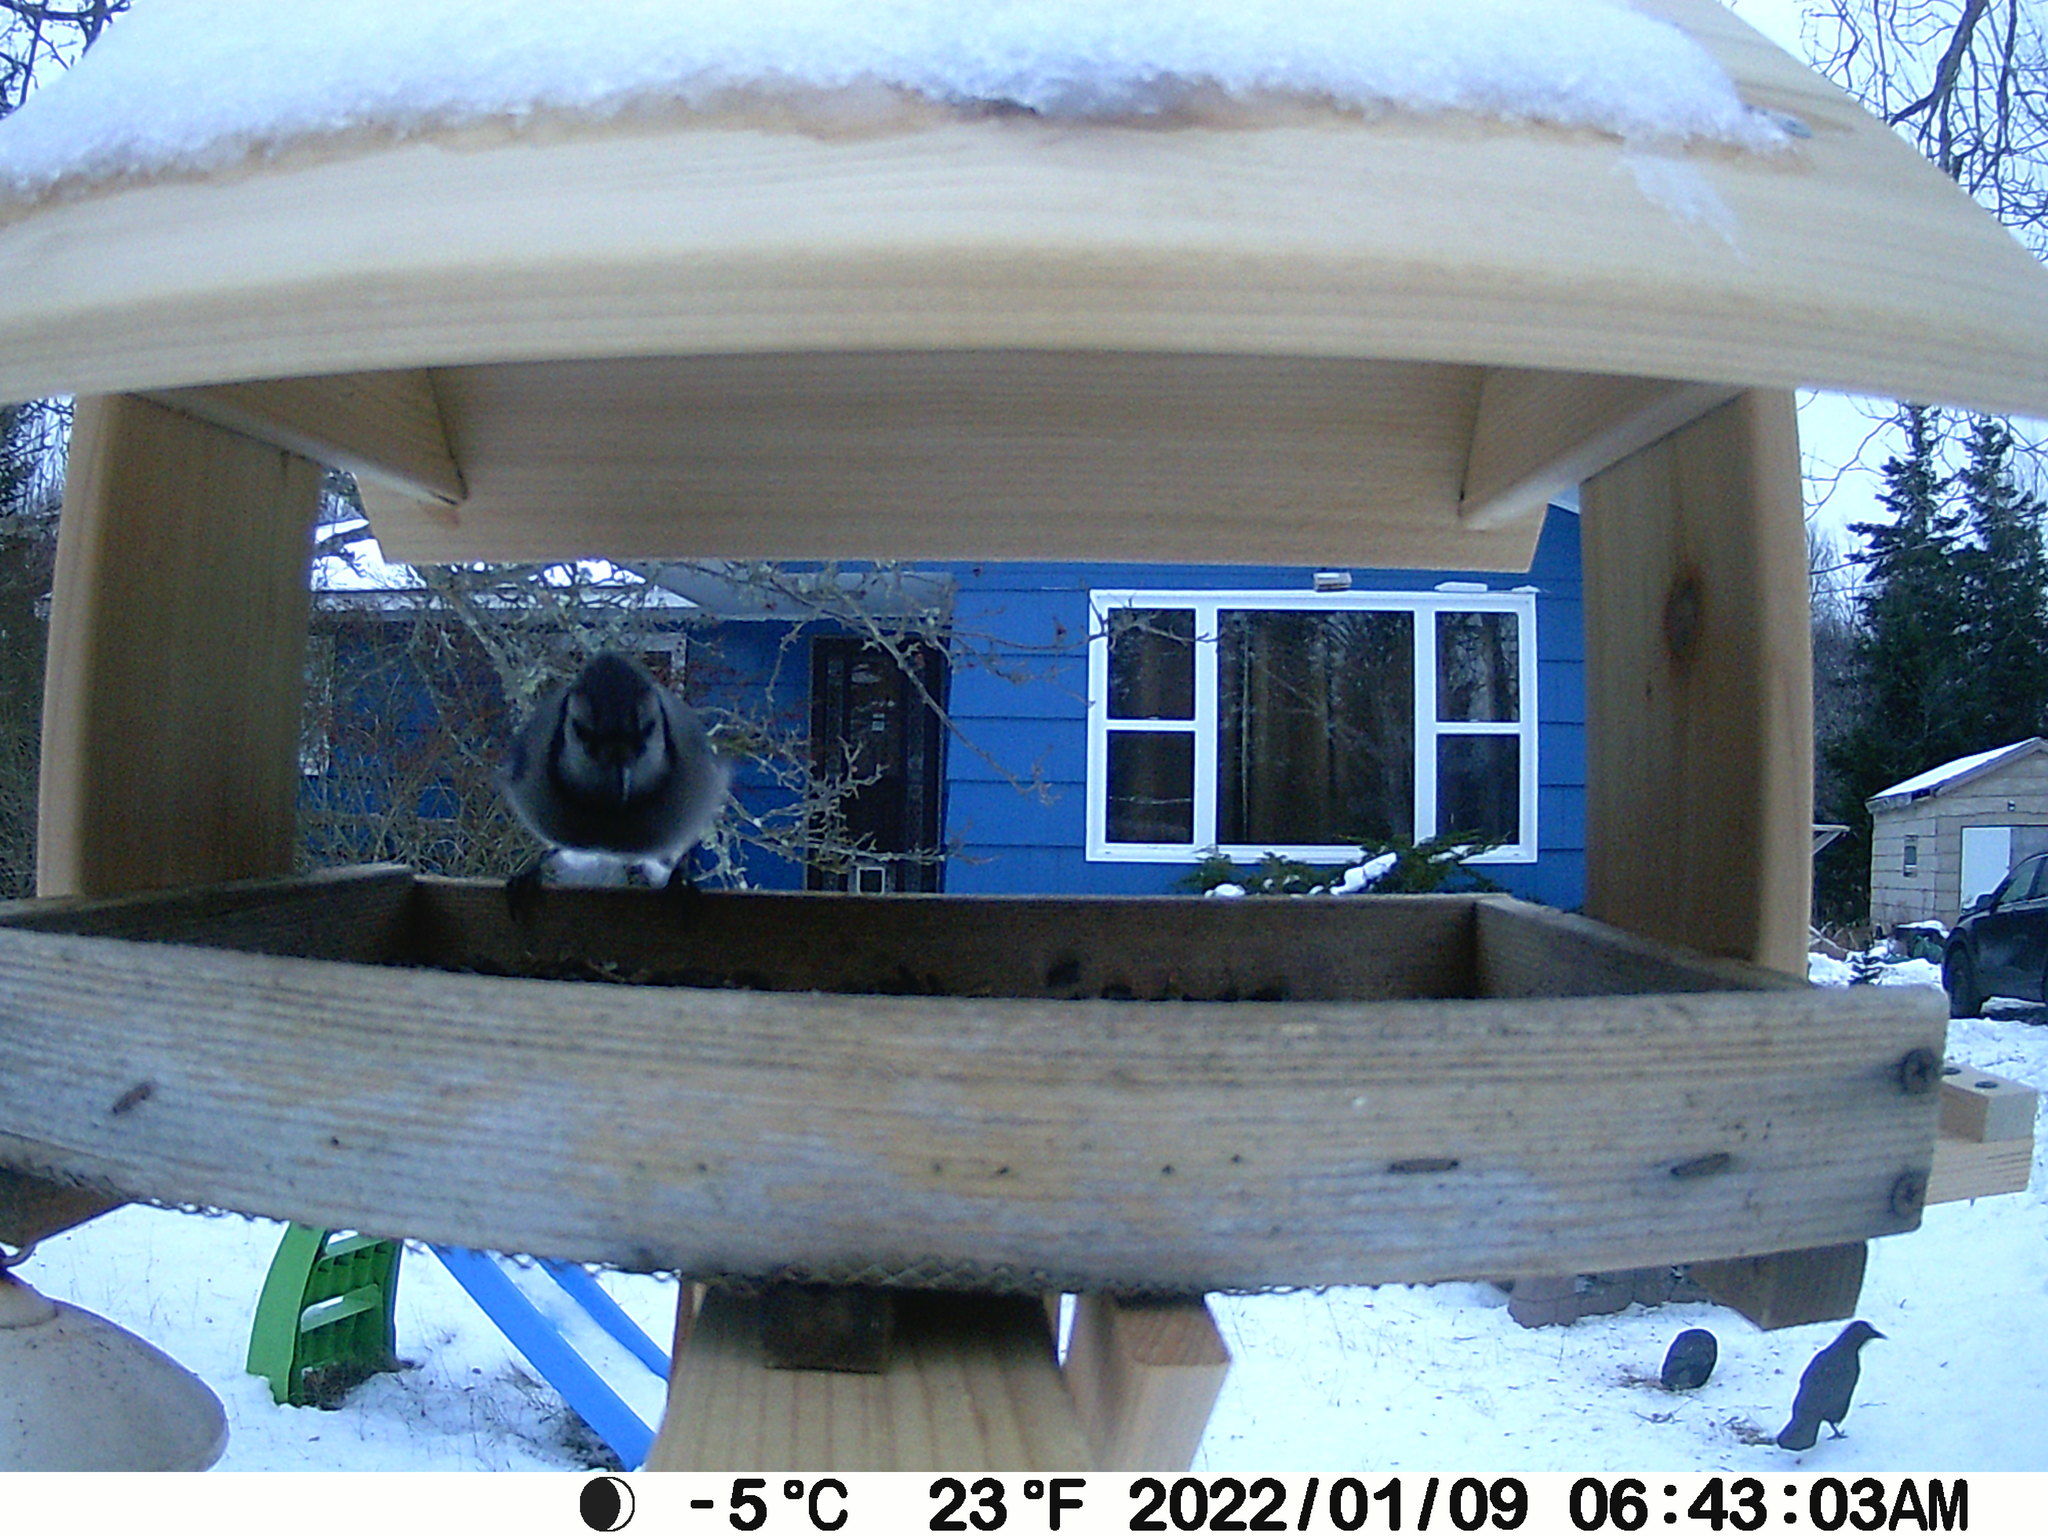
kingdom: Animalia
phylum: Chordata
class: Aves
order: Passeriformes
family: Corvidae
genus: Corvus
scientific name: Corvus brachyrhynchos
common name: American crow
